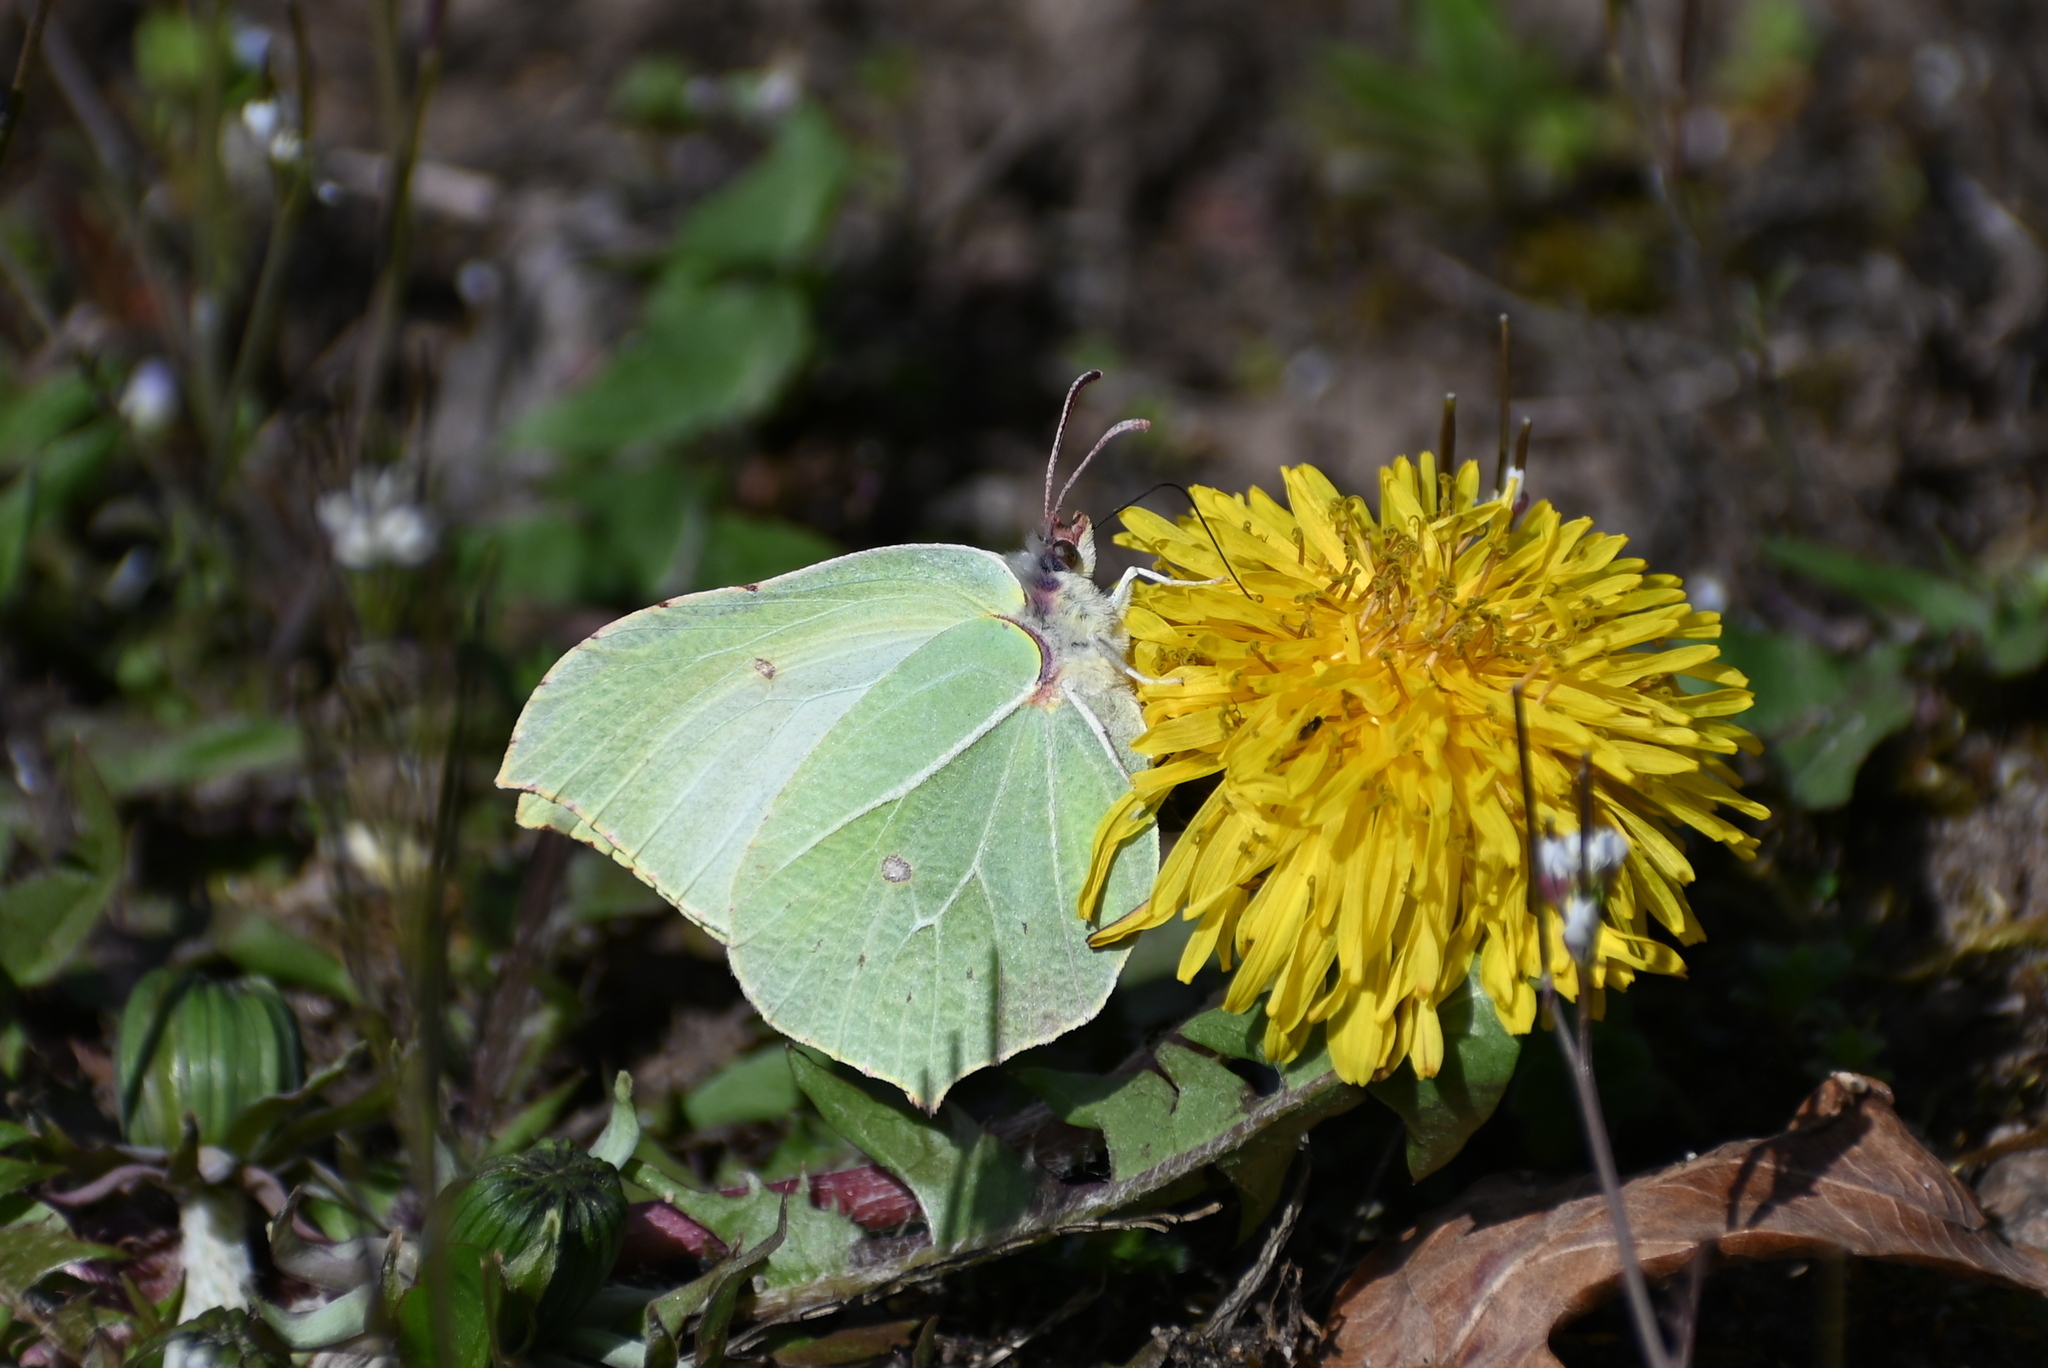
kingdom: Animalia
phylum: Arthropoda
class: Insecta
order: Lepidoptera
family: Pieridae
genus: Gonepteryx
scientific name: Gonepteryx rhamni
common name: Brimstone
